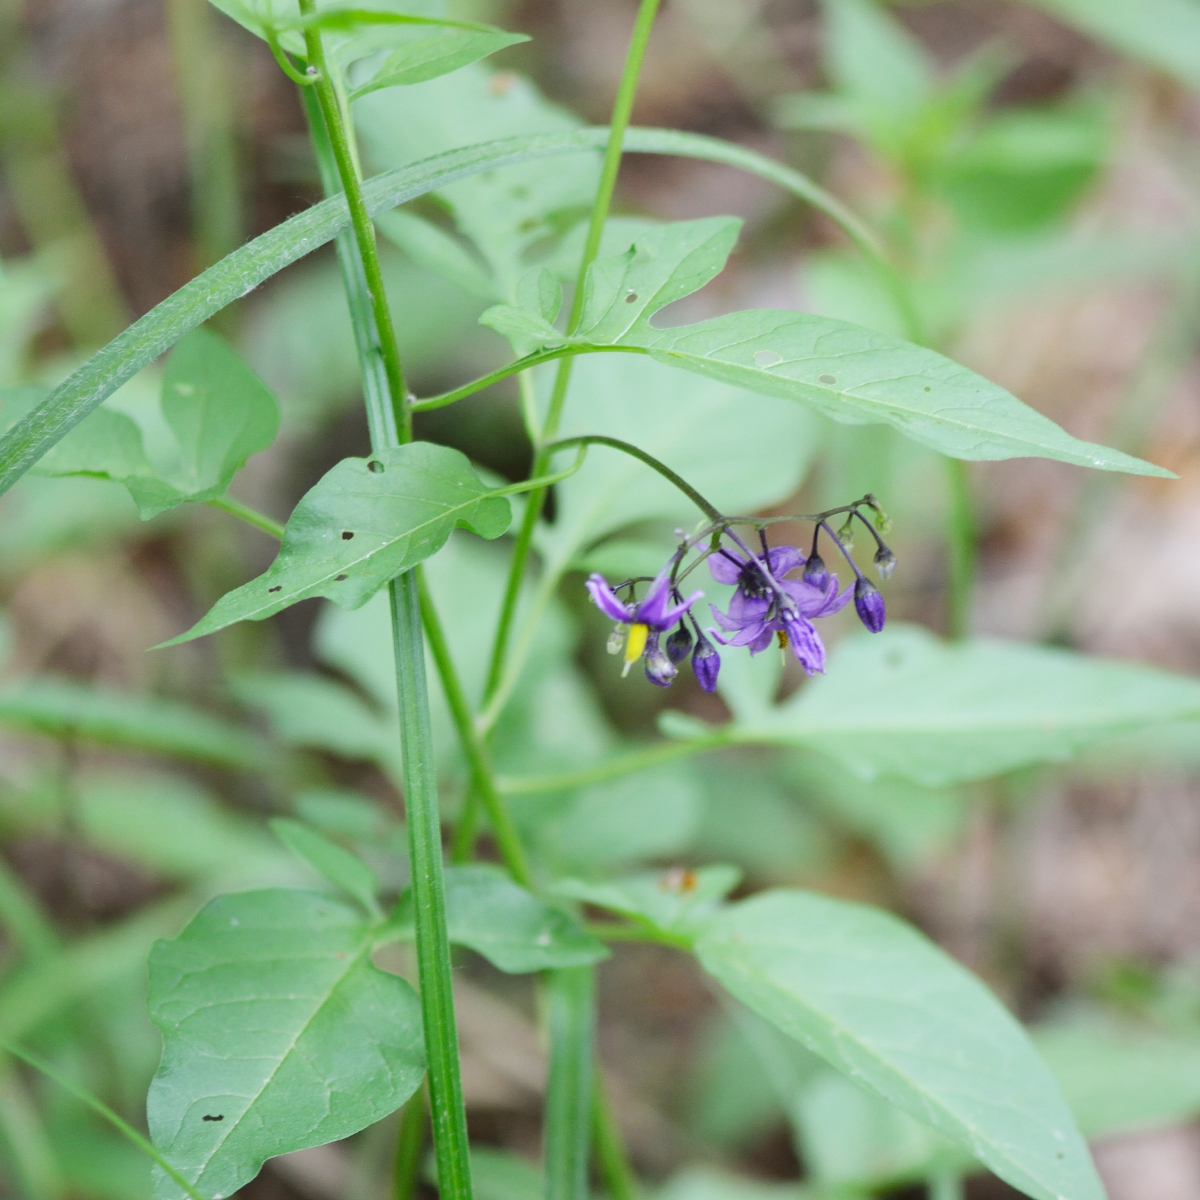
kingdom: Plantae
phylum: Tracheophyta
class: Magnoliopsida
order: Solanales
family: Solanaceae
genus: Solanum
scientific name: Solanum dulcamara
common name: Climbing nightshade
